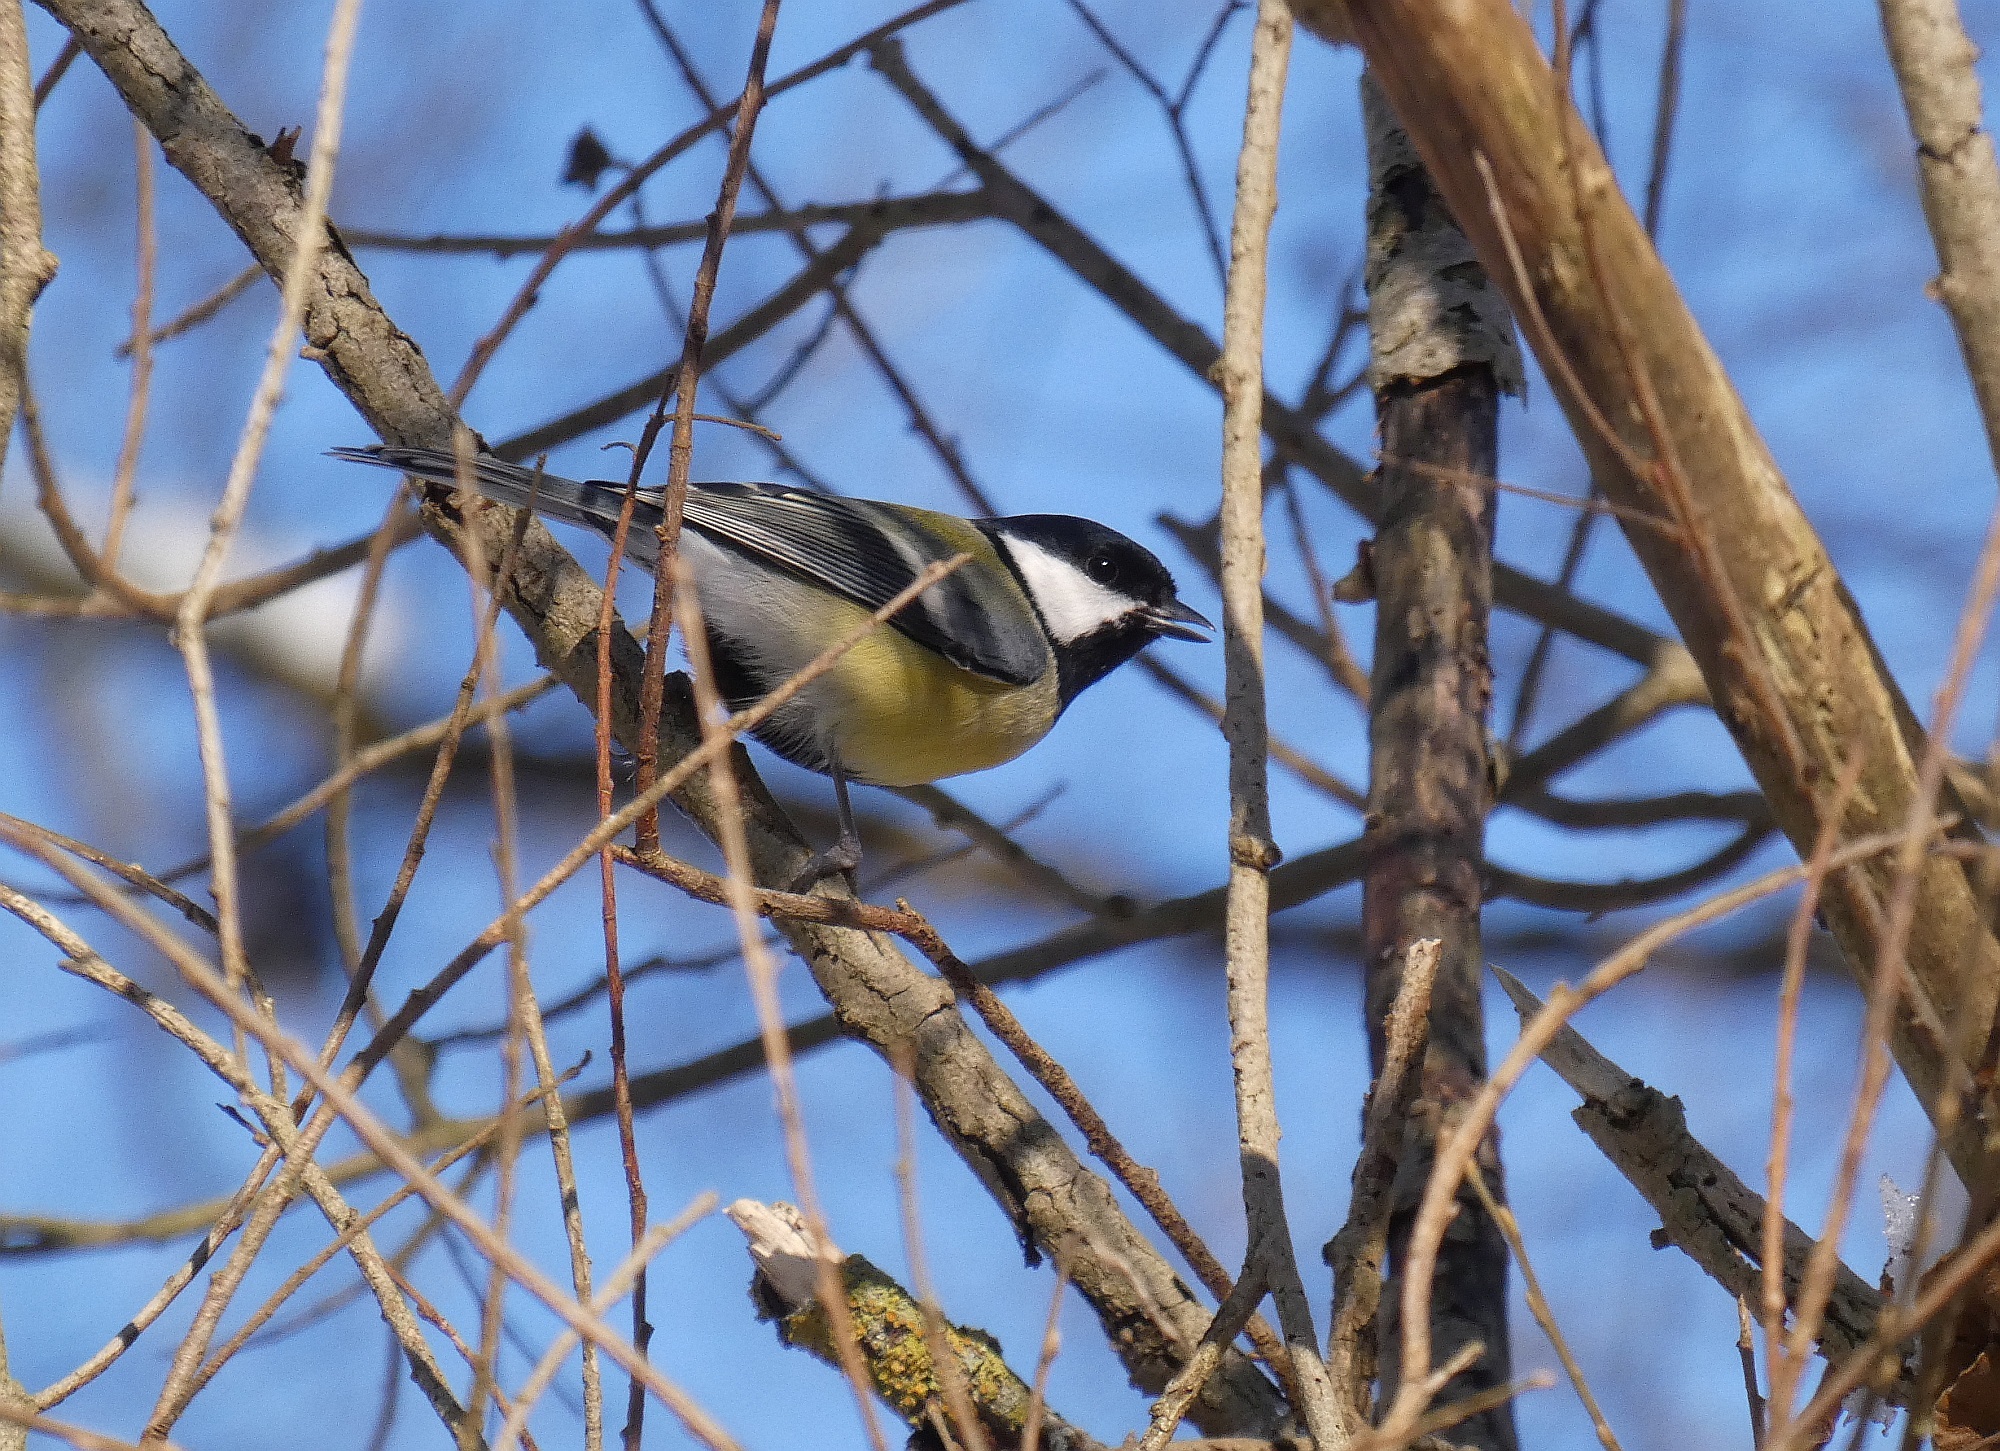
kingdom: Animalia
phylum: Chordata
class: Aves
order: Passeriformes
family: Paridae
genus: Parus
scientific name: Parus major
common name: Great tit
